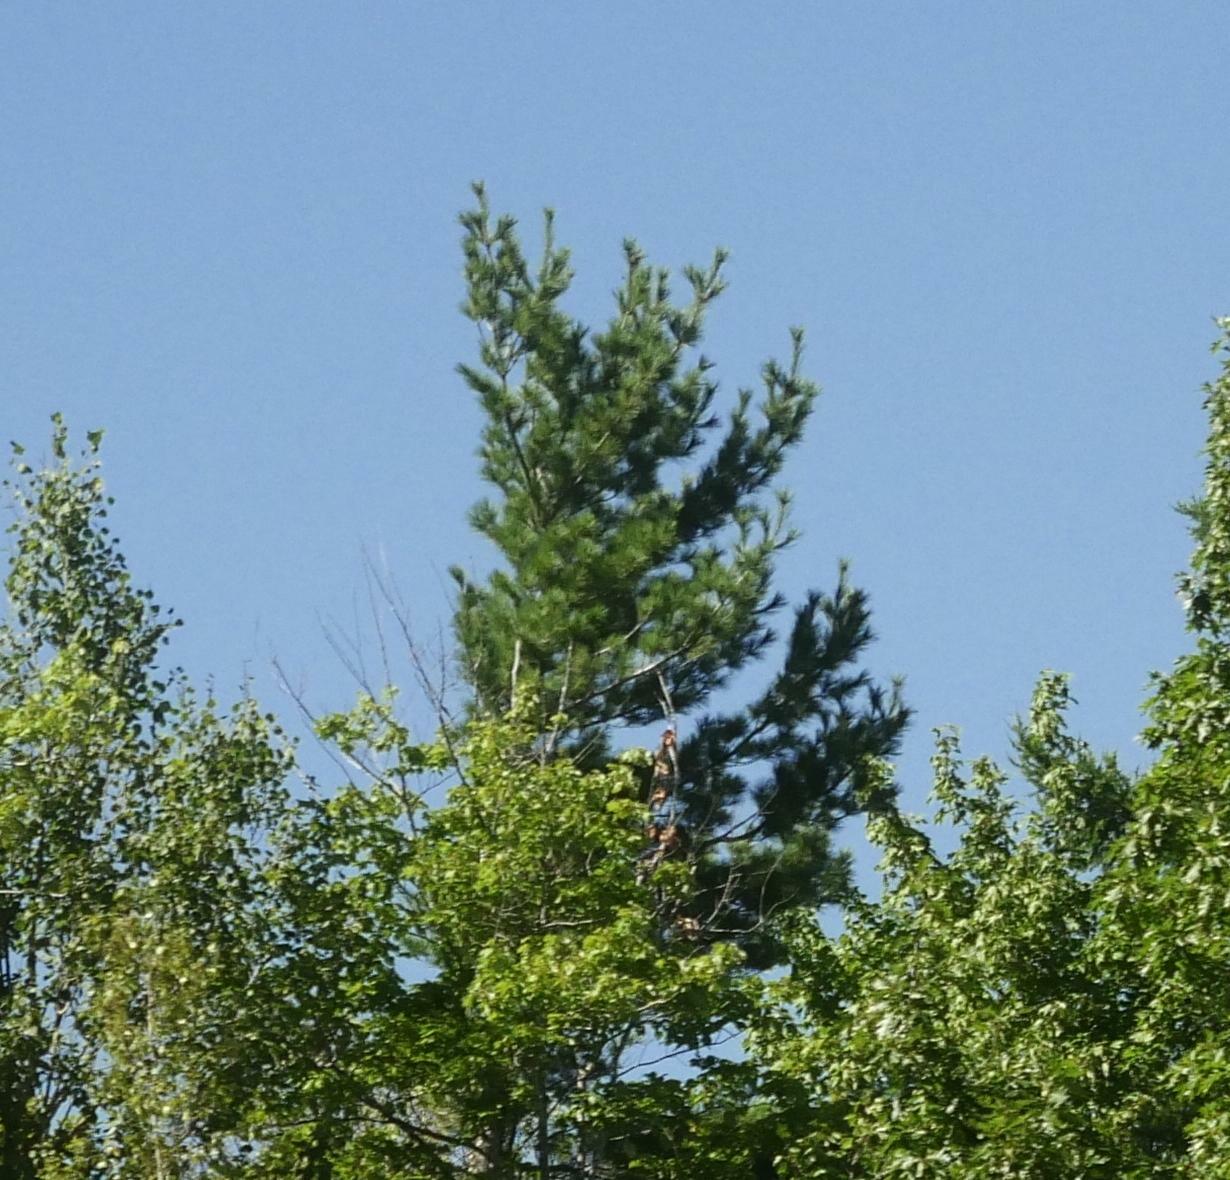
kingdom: Plantae
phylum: Tracheophyta
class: Pinopsida
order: Pinales
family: Pinaceae
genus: Pinus
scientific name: Pinus strobus
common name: Weymouth pine
